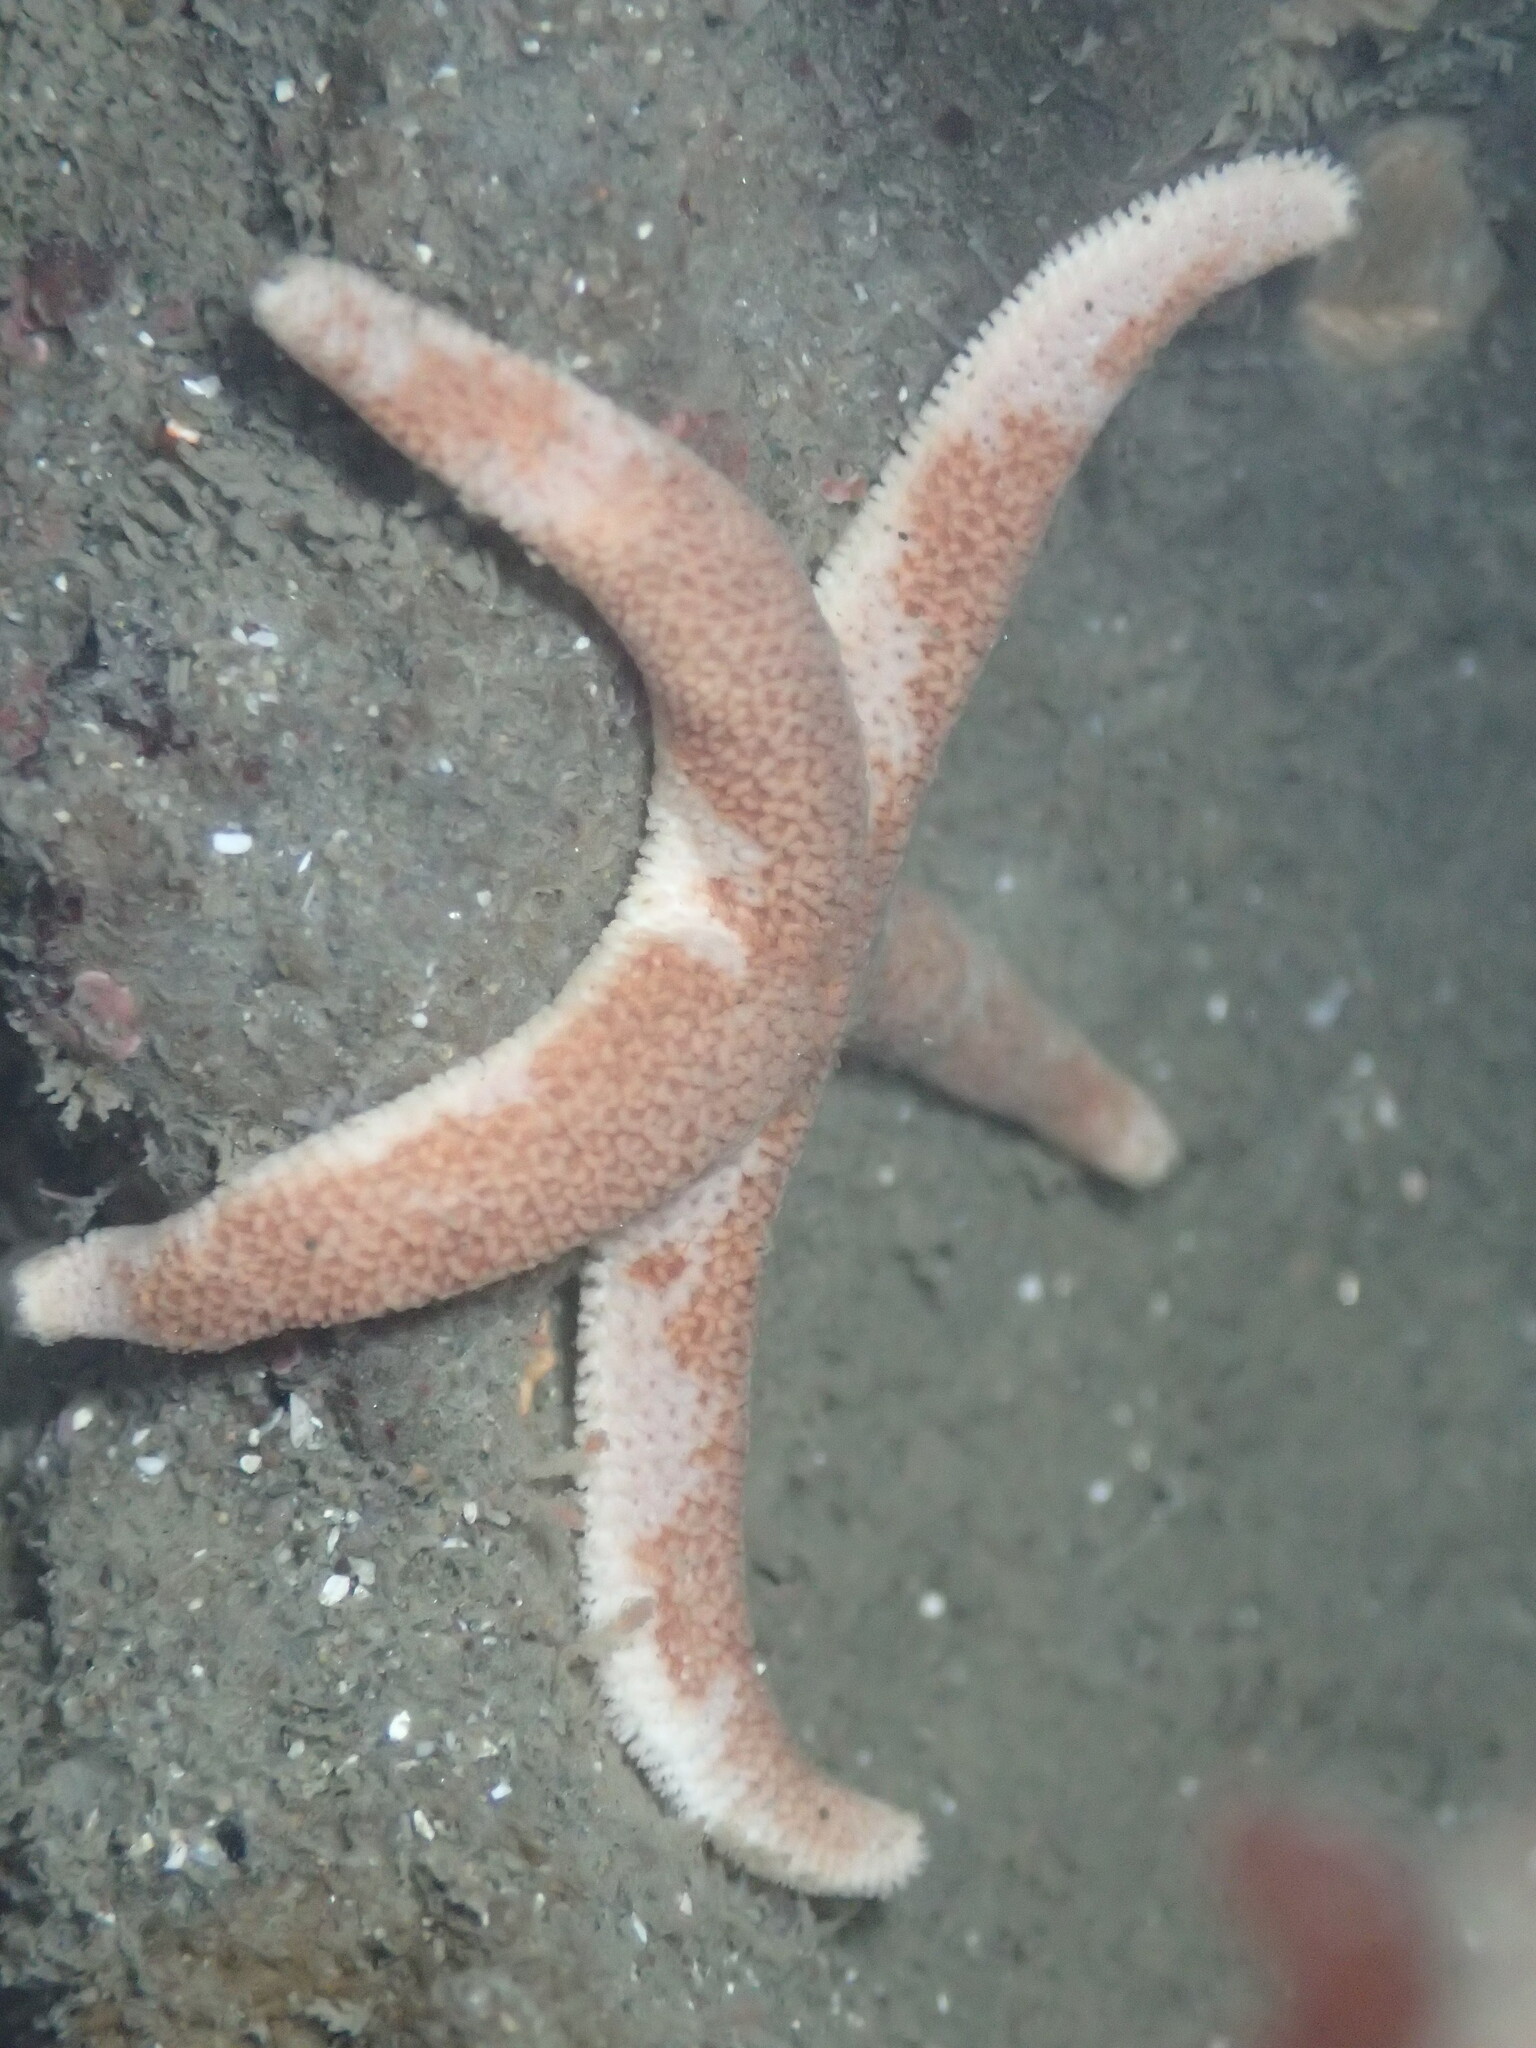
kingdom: Animalia
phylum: Echinodermata
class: Asteroidea
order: Spinulosida
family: Echinasteridae
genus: Henricia
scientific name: Henricia pumila
